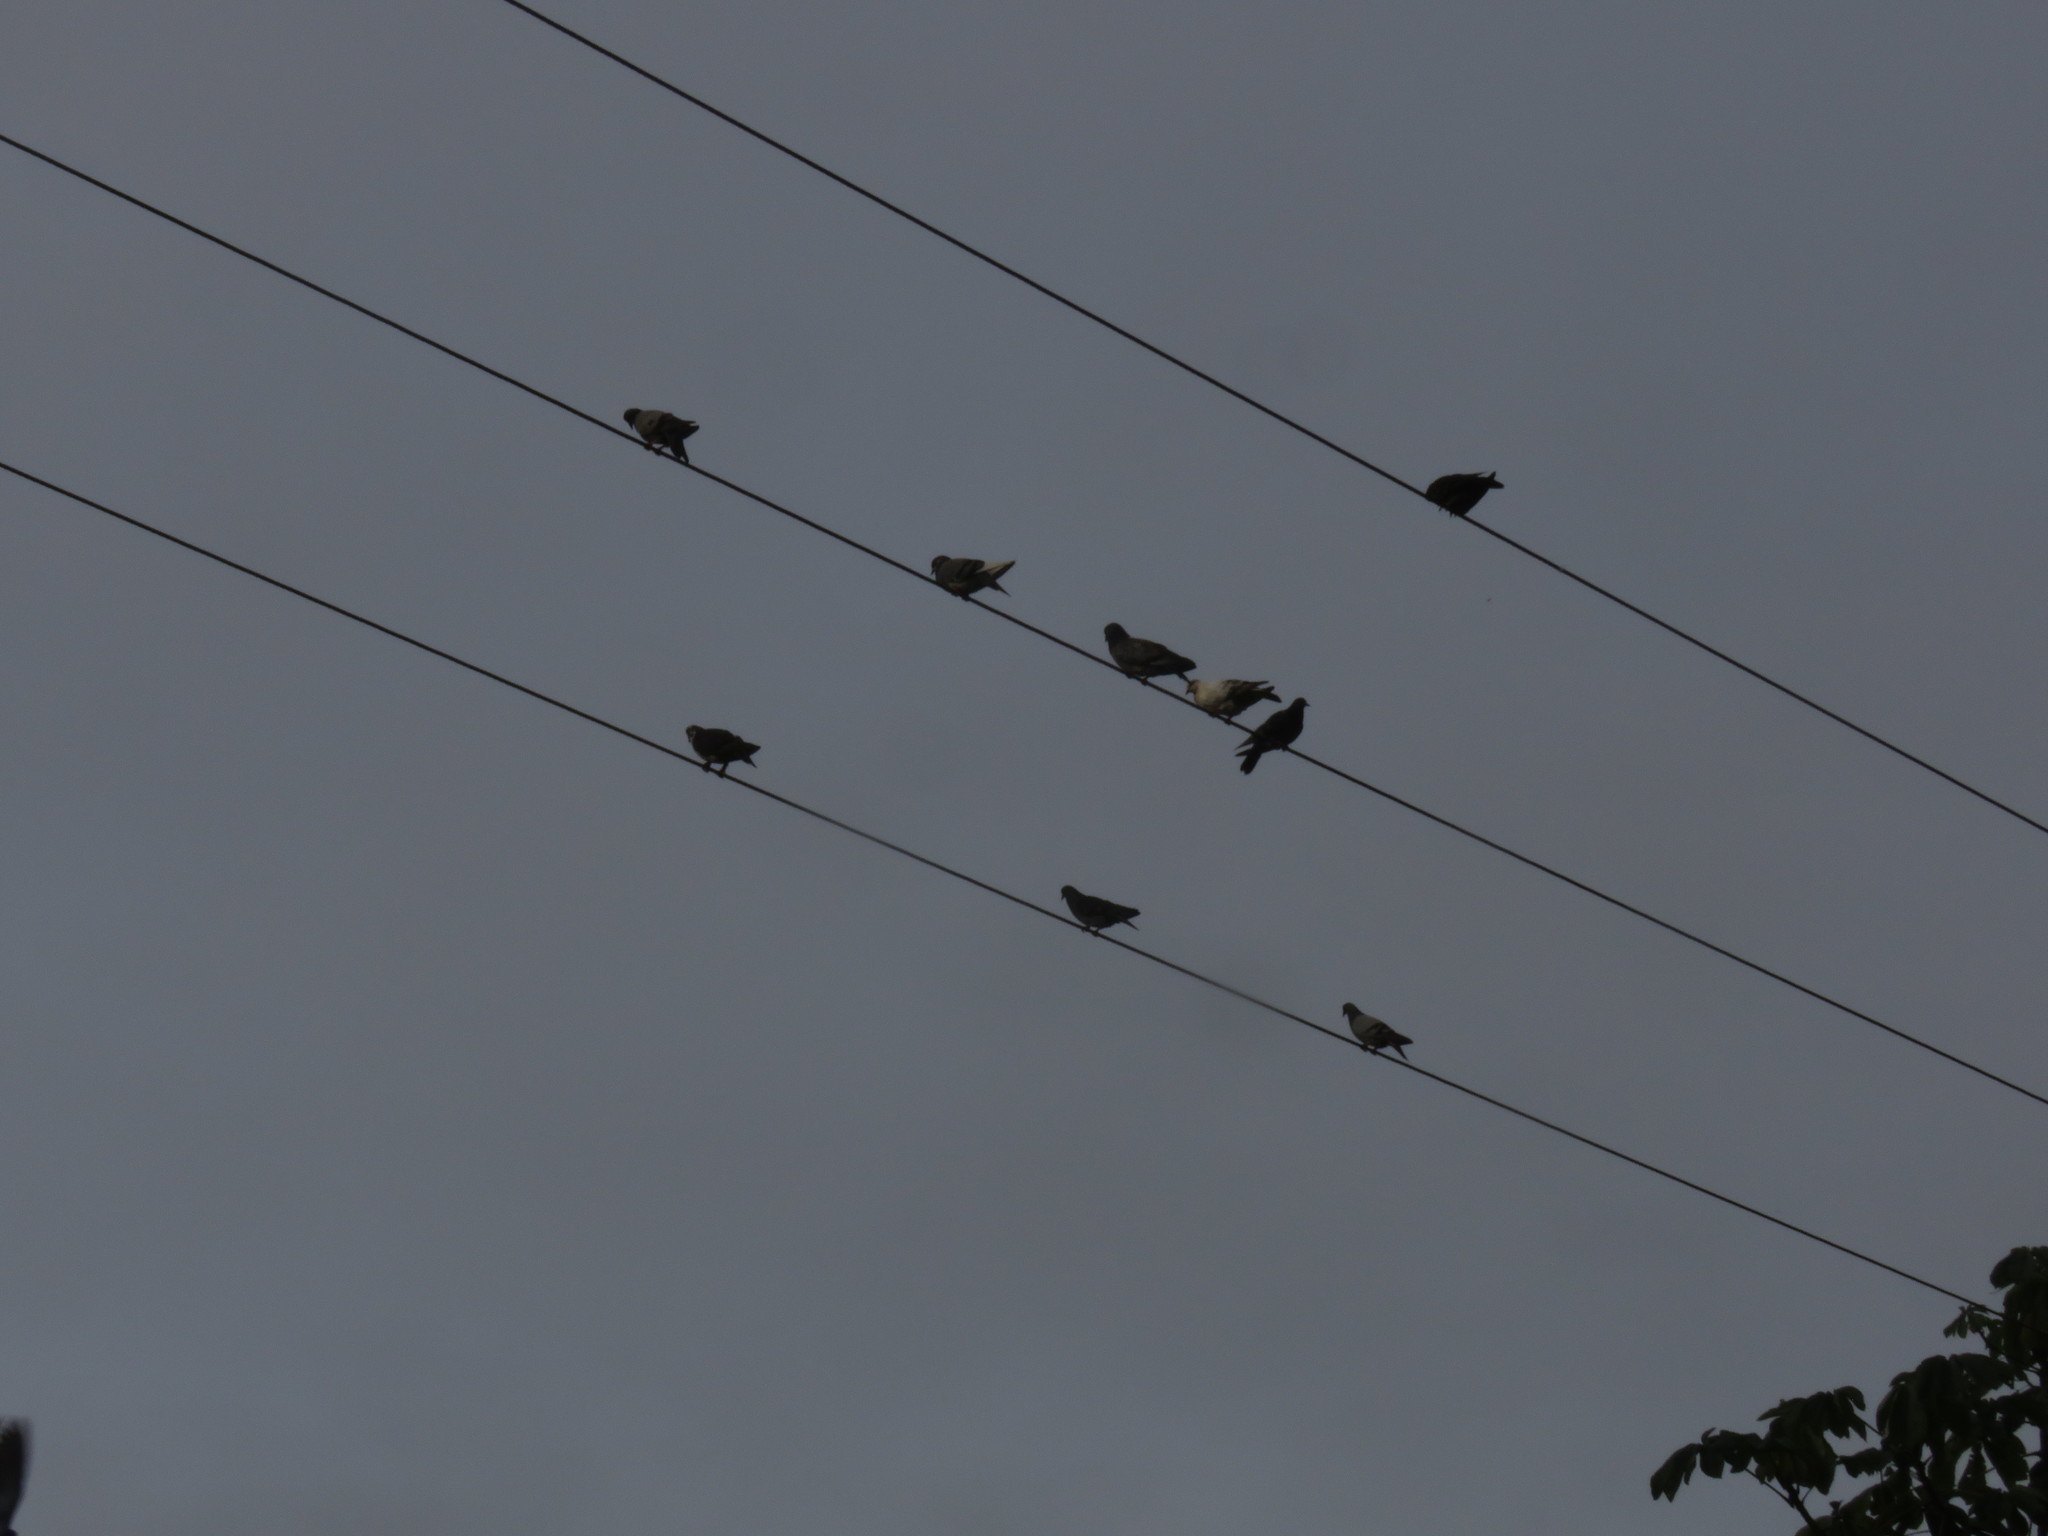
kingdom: Animalia
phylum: Chordata
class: Aves
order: Columbiformes
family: Columbidae
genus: Columba
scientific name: Columba livia
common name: Rock pigeon
